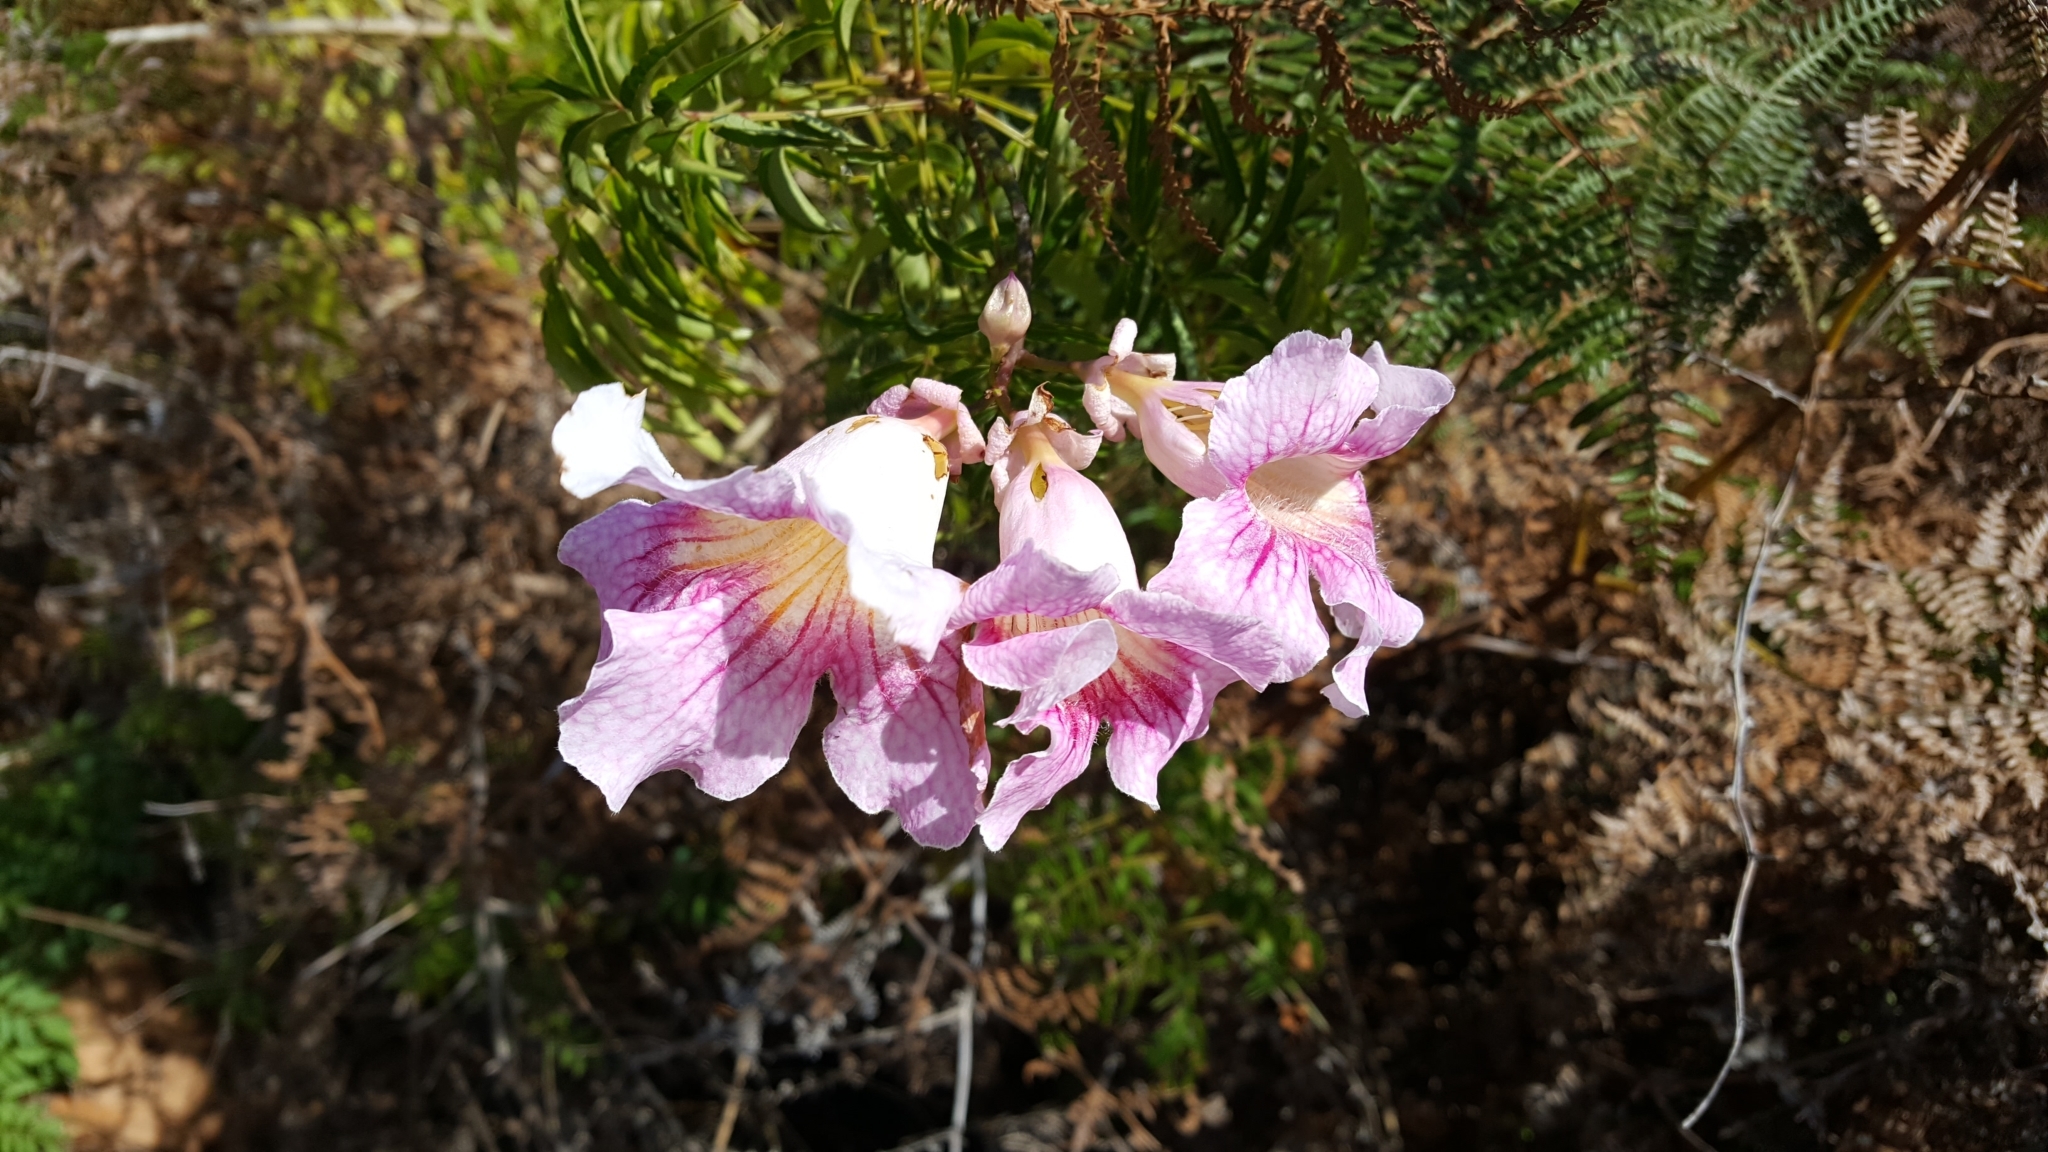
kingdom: Plantae
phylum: Tracheophyta
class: Magnoliopsida
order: Lamiales
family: Bignoniaceae
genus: Podranea
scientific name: Podranea brycei
